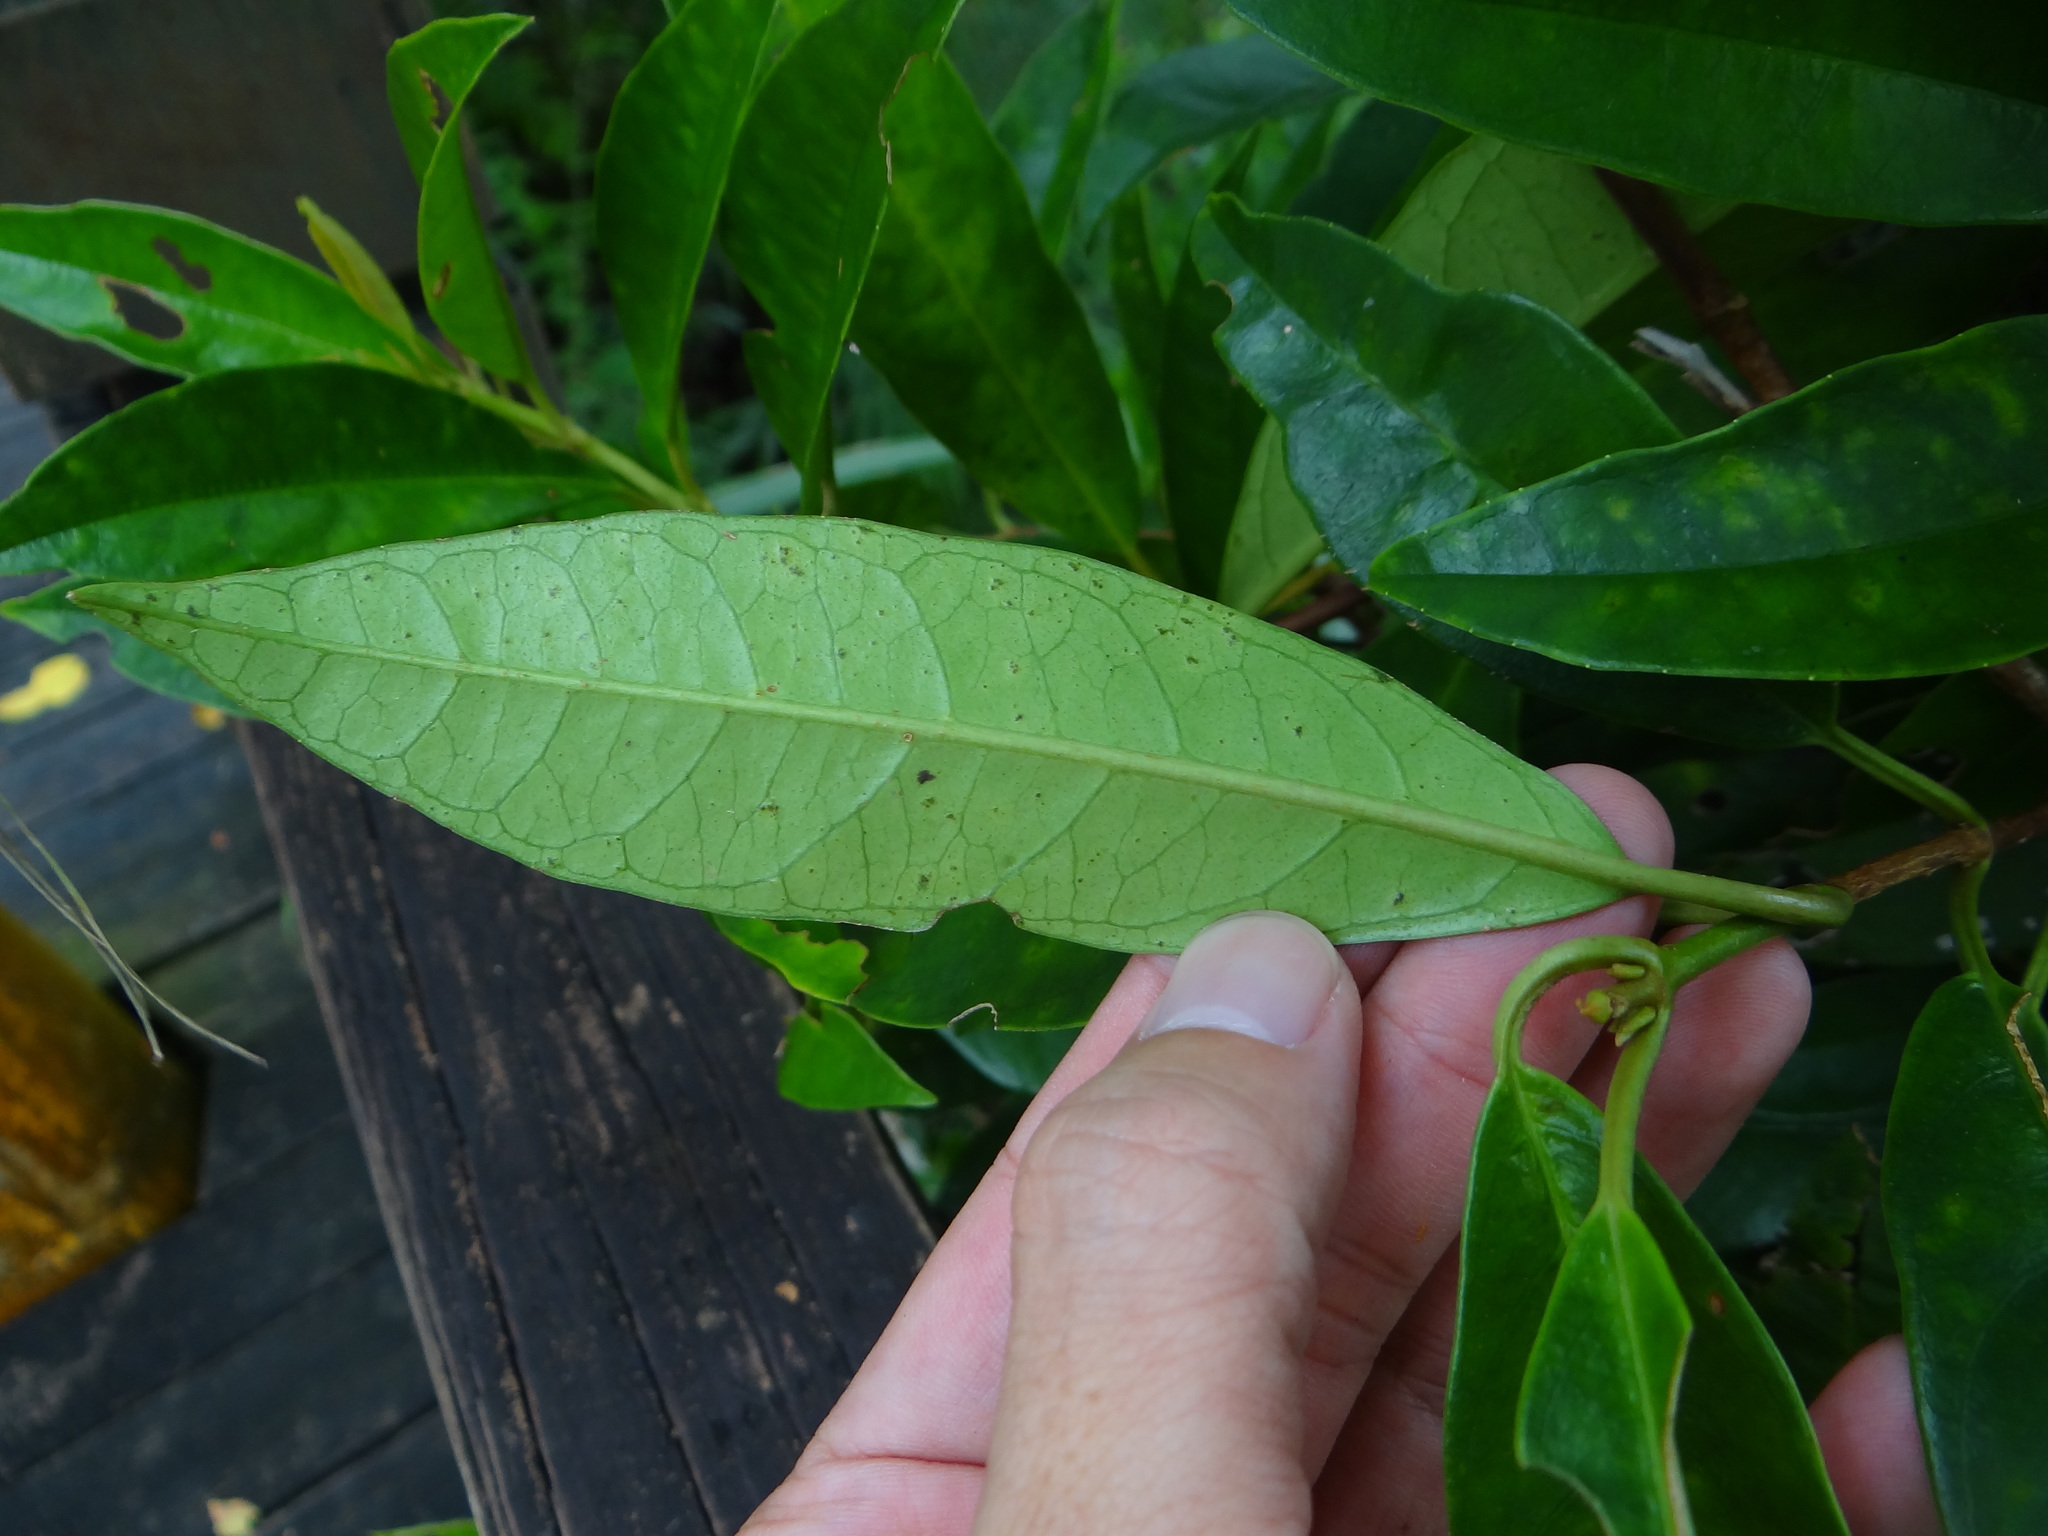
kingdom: Plantae
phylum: Tracheophyta
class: Magnoliopsida
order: Cornales
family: Hydrangeaceae
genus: Hydrangea
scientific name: Hydrangea viburnoides
